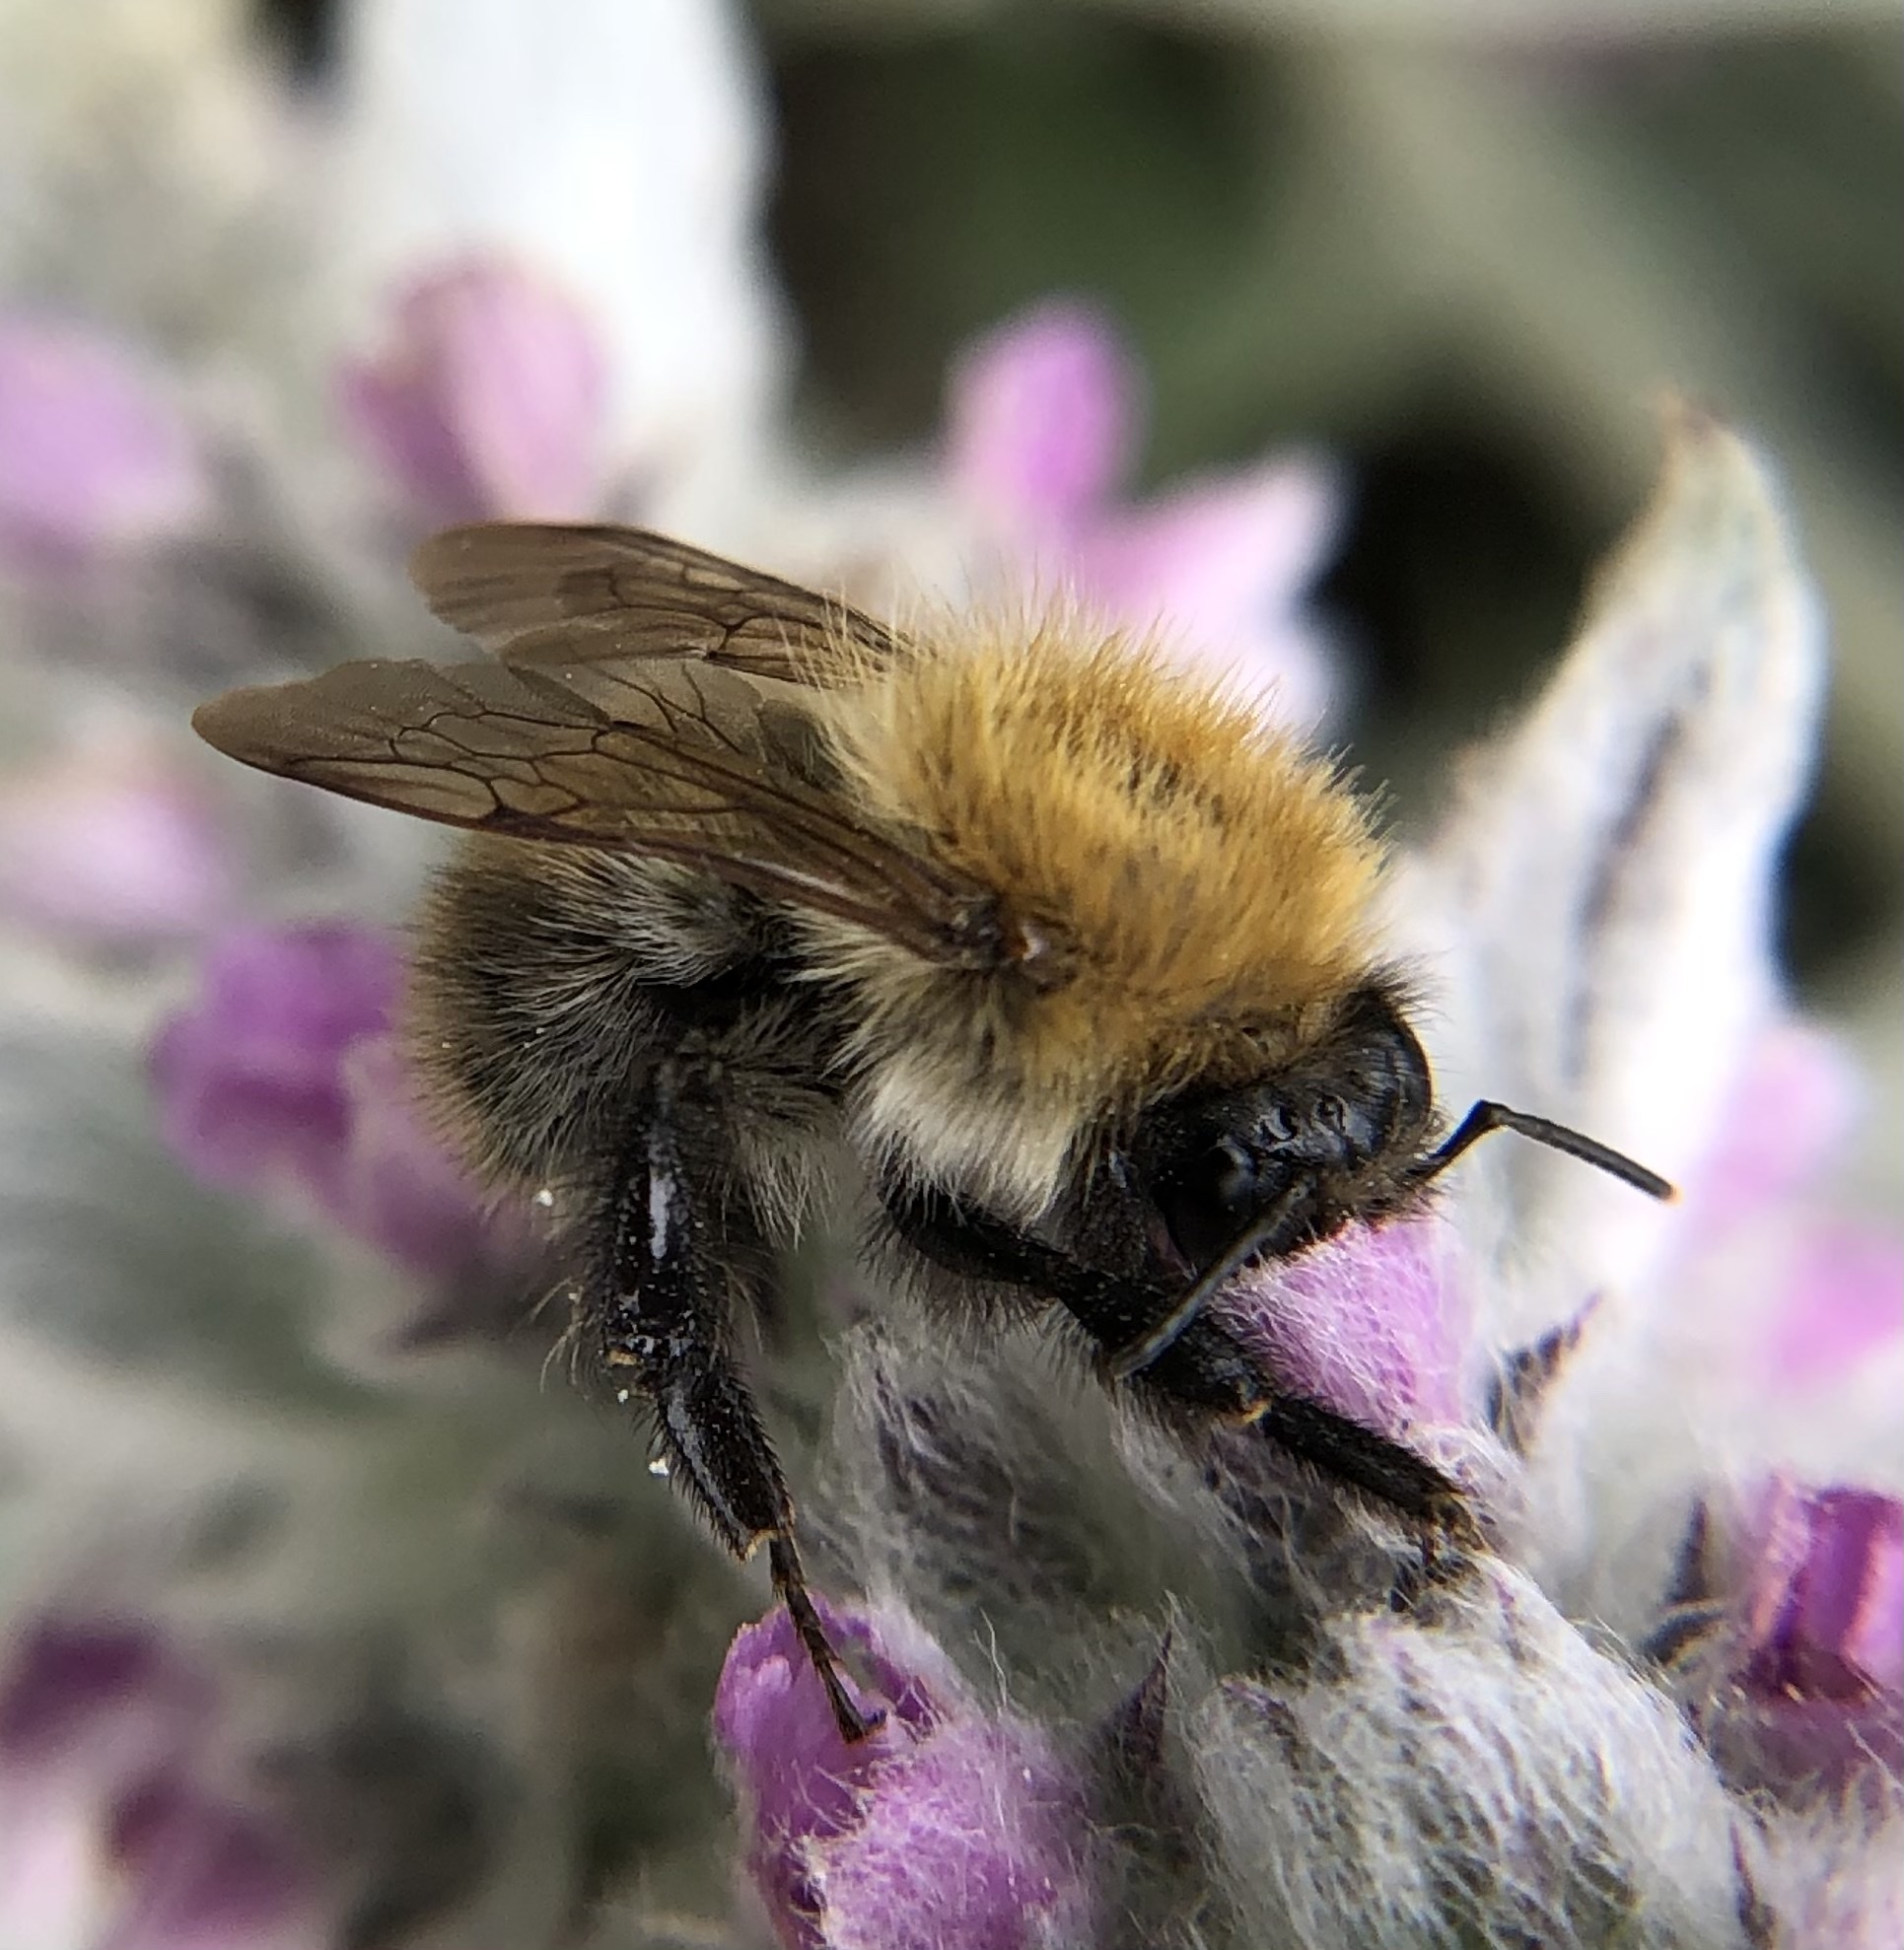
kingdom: Animalia
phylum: Arthropoda
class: Insecta
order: Hymenoptera
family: Apidae
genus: Bombus
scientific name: Bombus pascuorum
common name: Common carder bee
